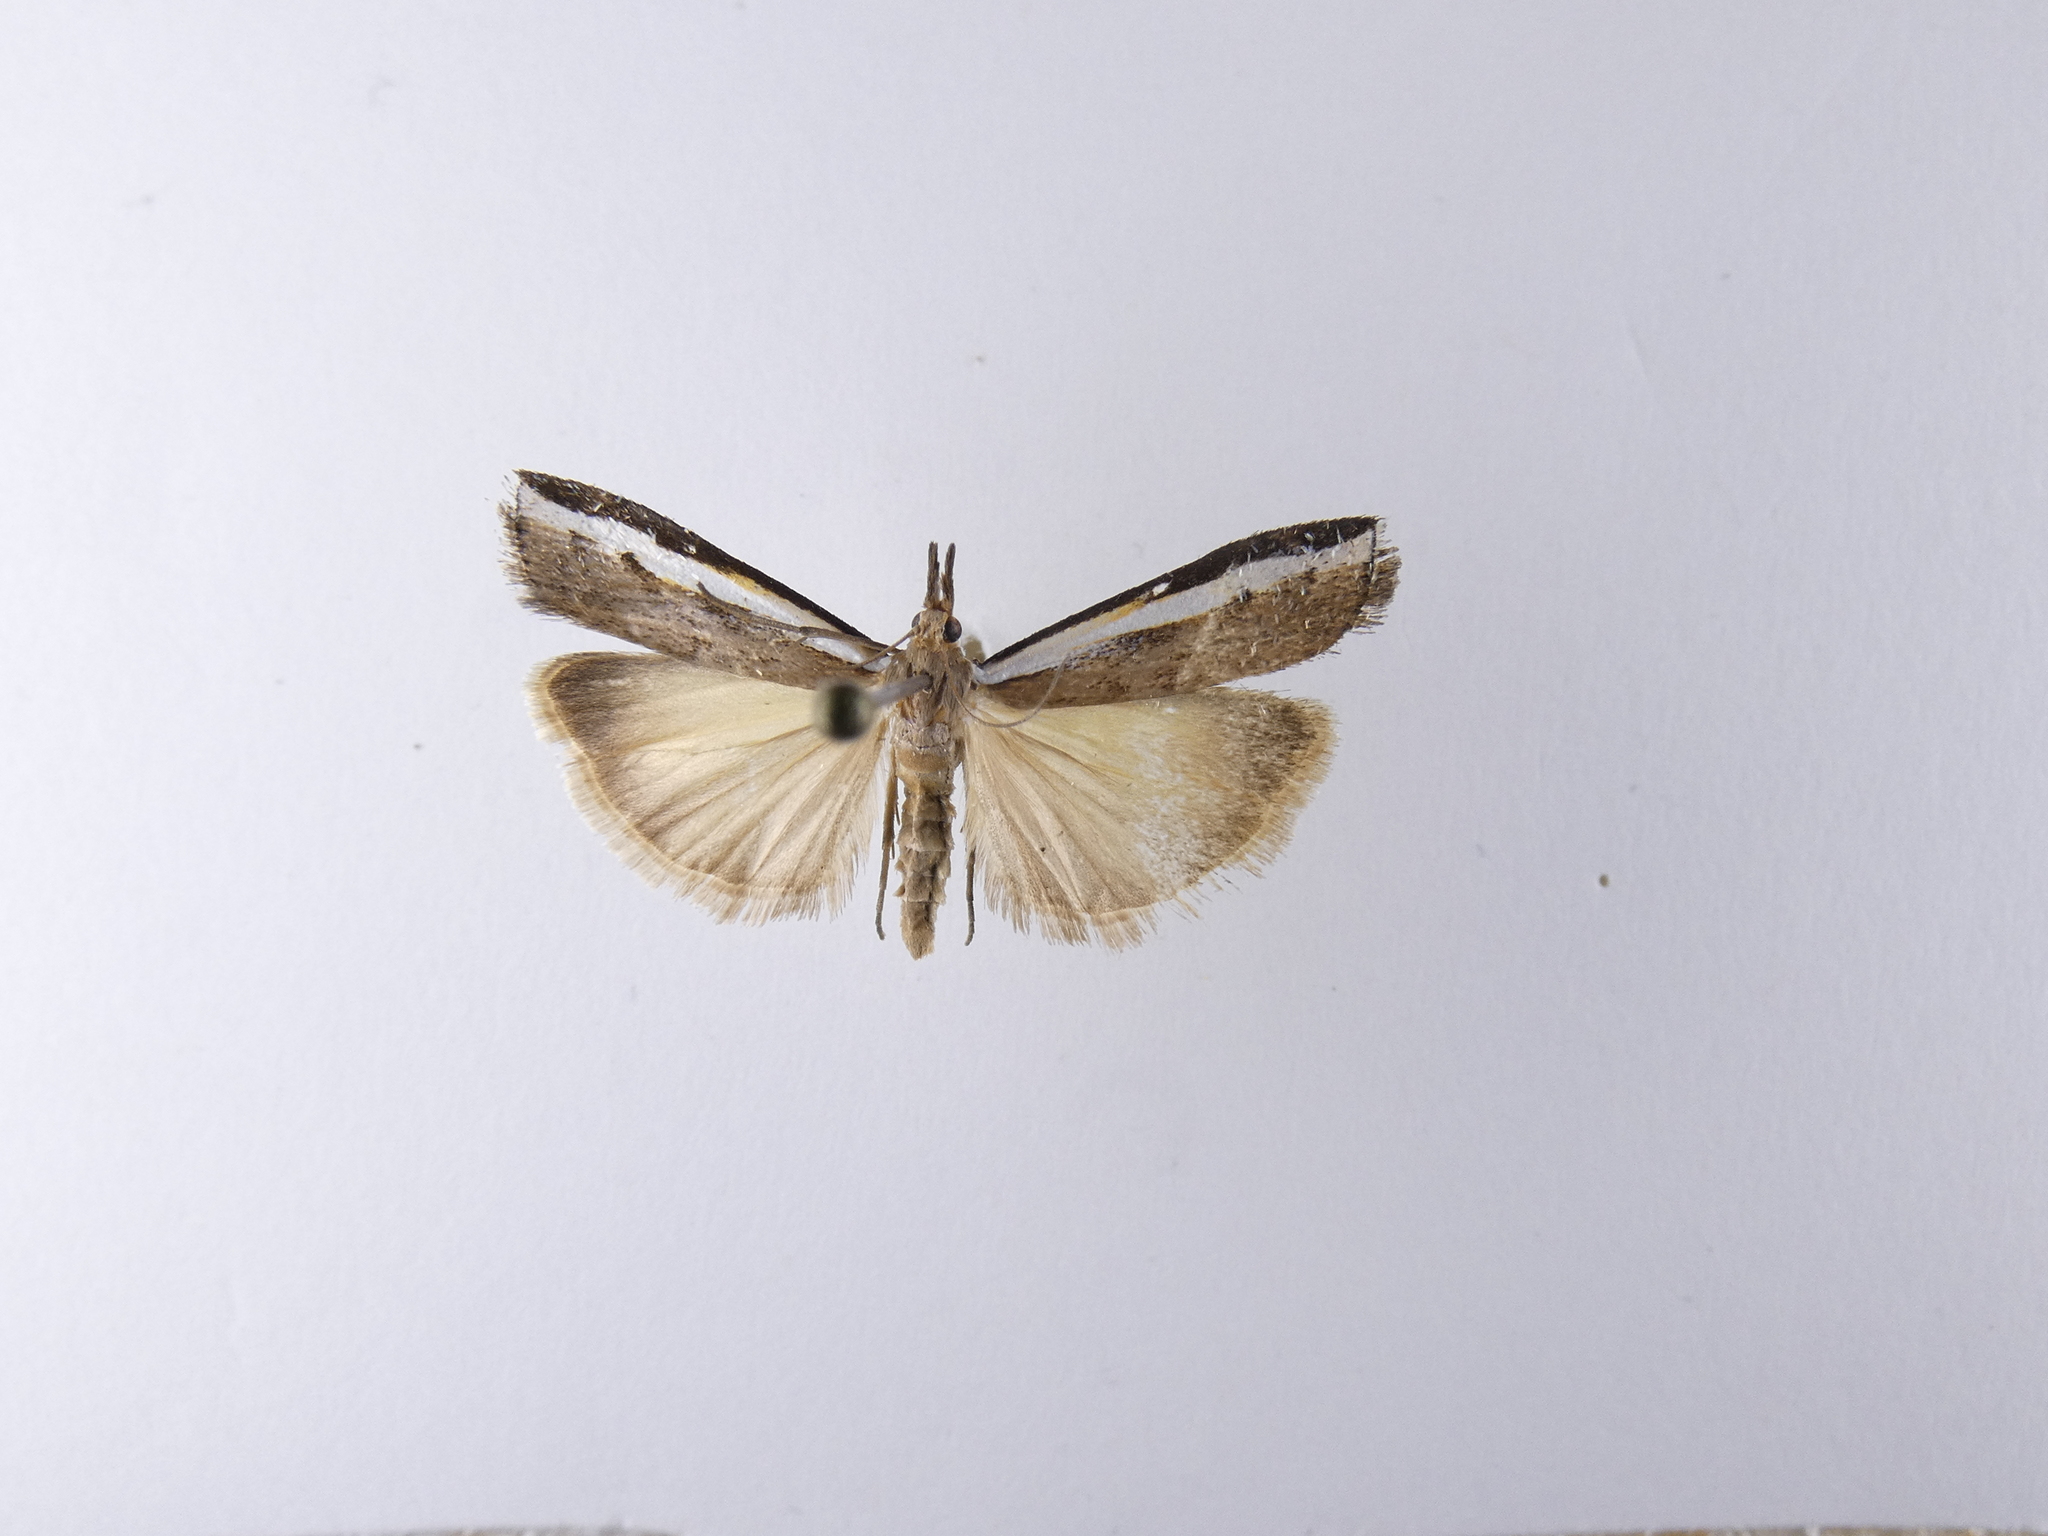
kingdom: Animalia
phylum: Arthropoda
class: Insecta
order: Lepidoptera
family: Crambidae
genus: Orocrambus
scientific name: Orocrambus flexuosellus
